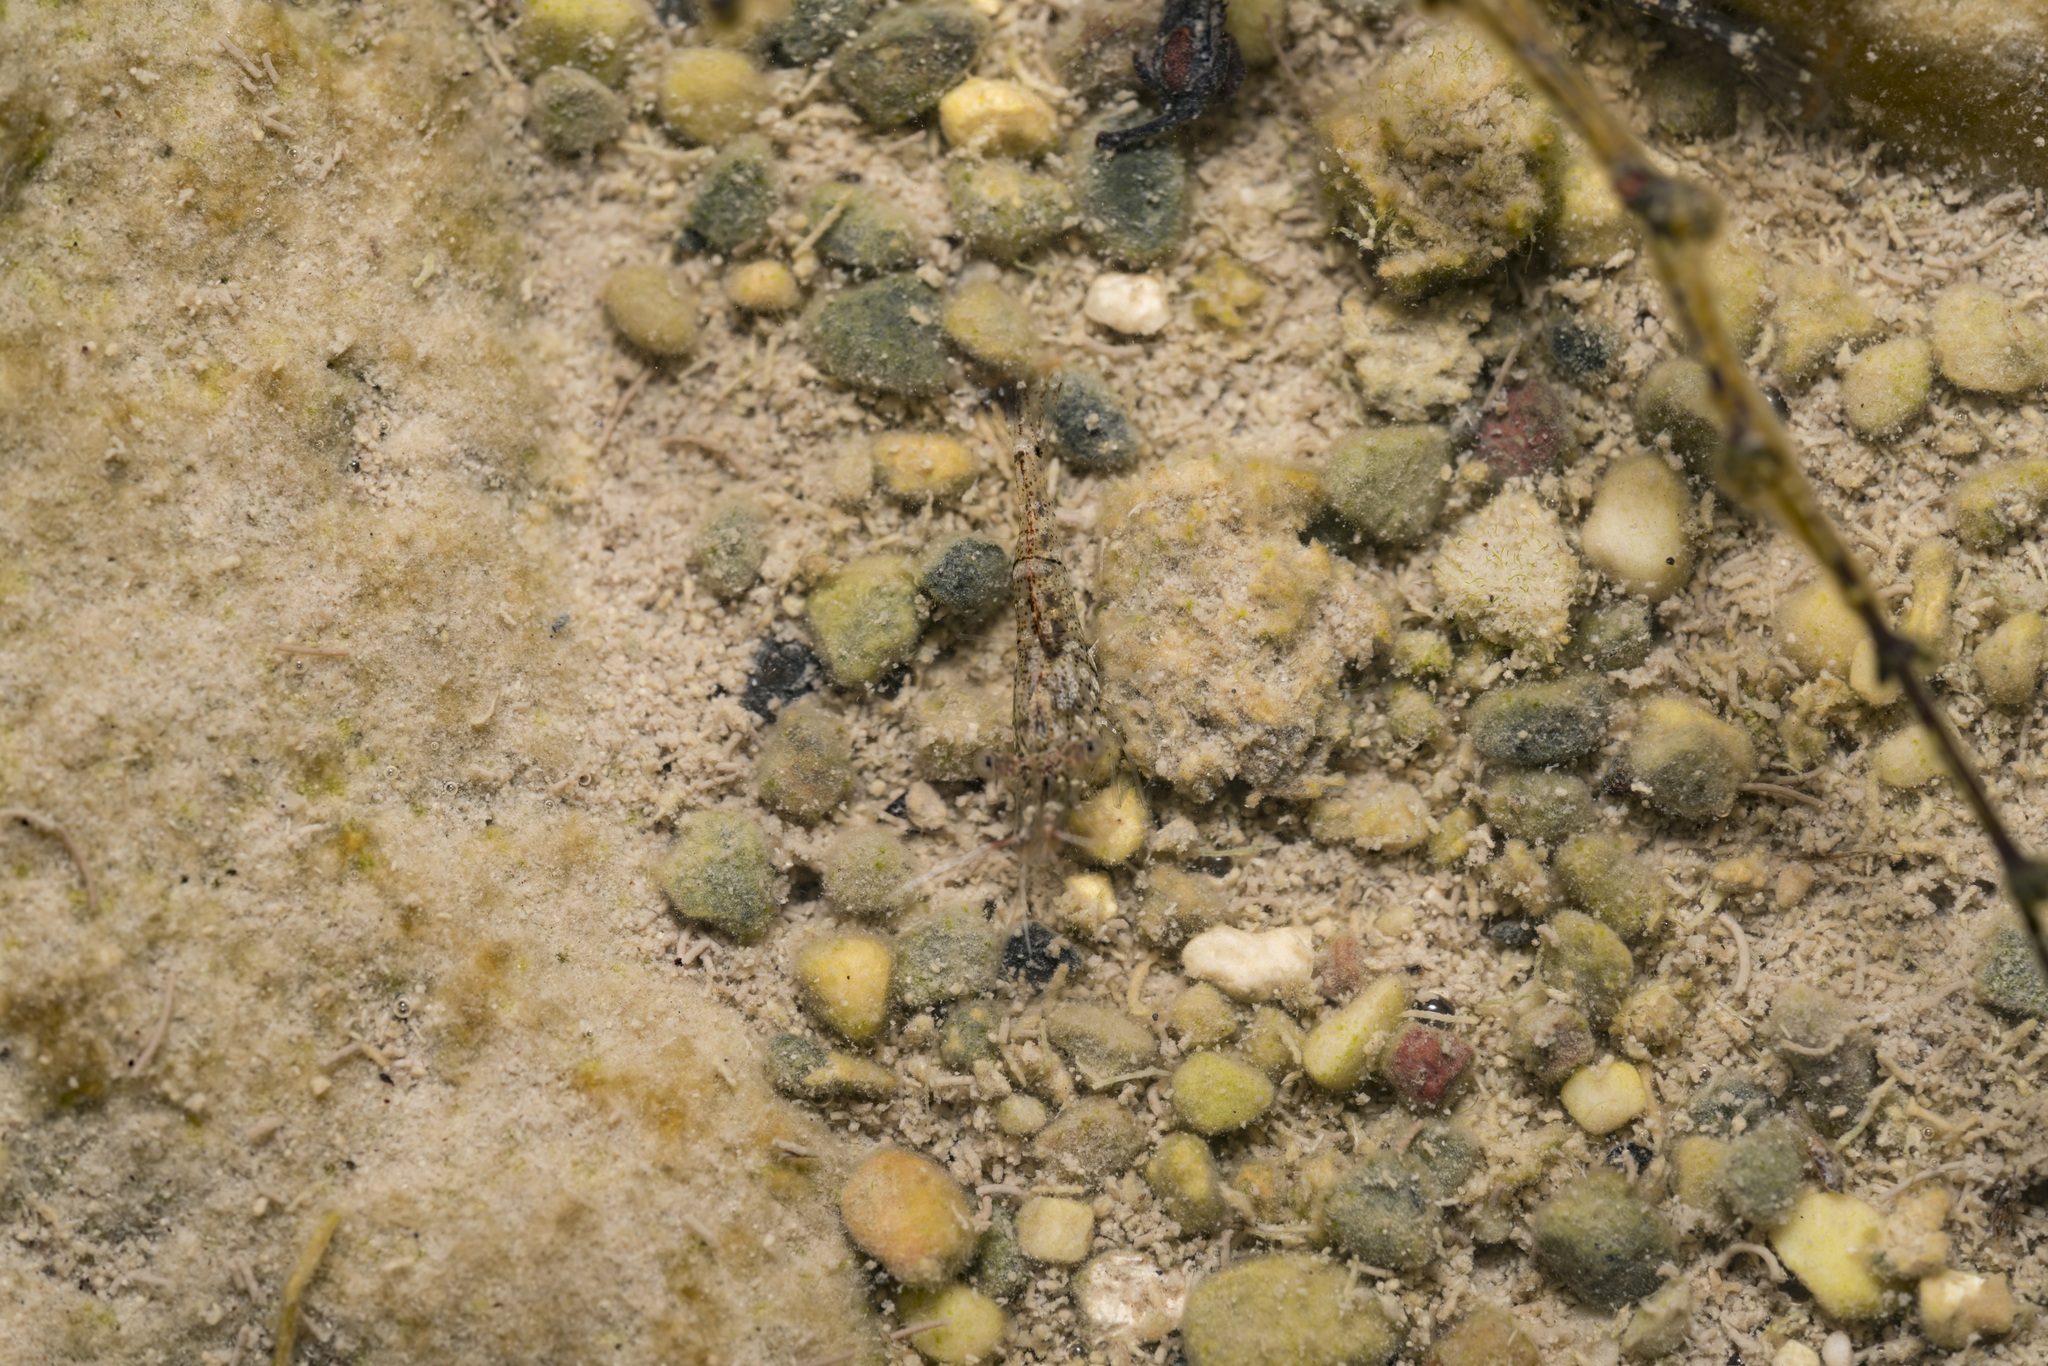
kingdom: Animalia
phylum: Arthropoda
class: Malacostraca
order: Decapoda
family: Palaemonidae
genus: Palaemon
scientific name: Palaemon colossus
